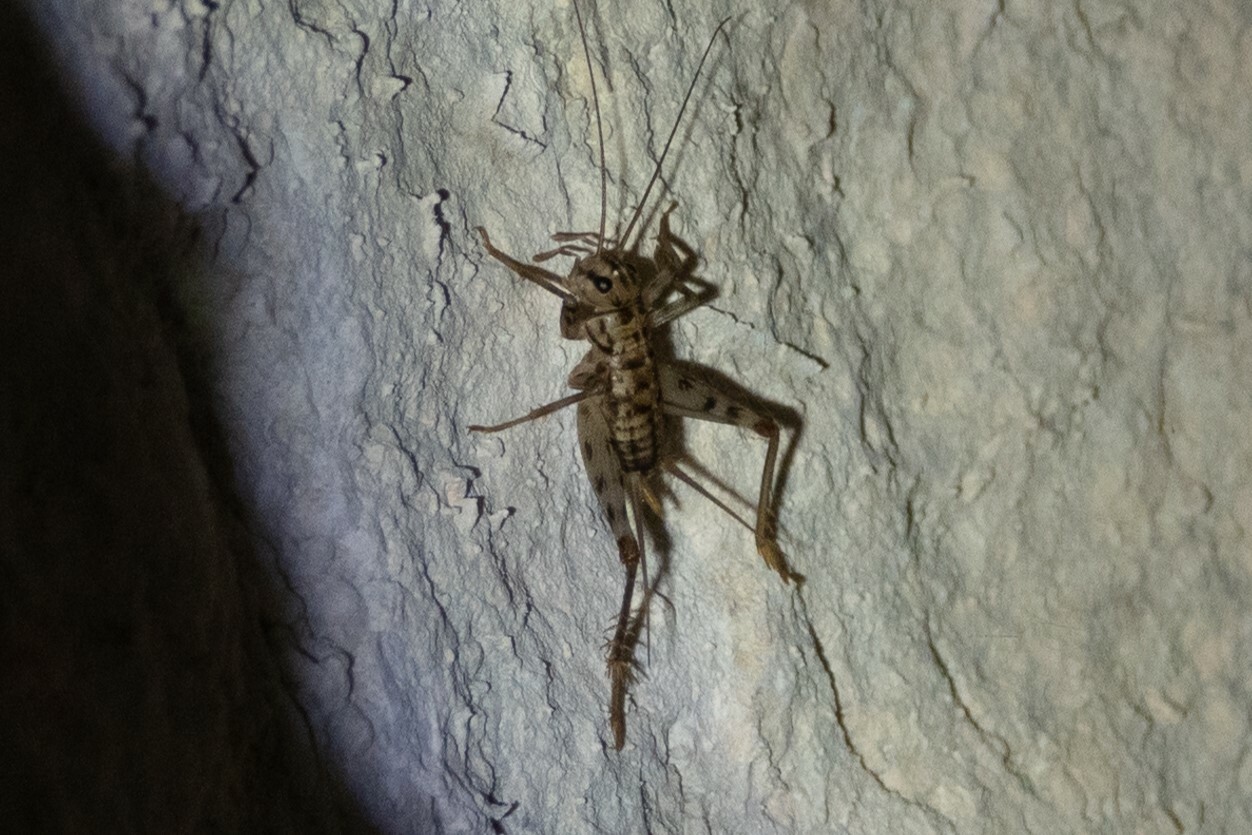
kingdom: Animalia
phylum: Arthropoda
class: Insecta
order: Orthoptera
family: Gryllidae
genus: Gryllomorpha
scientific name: Gryllomorpha dalmatina
